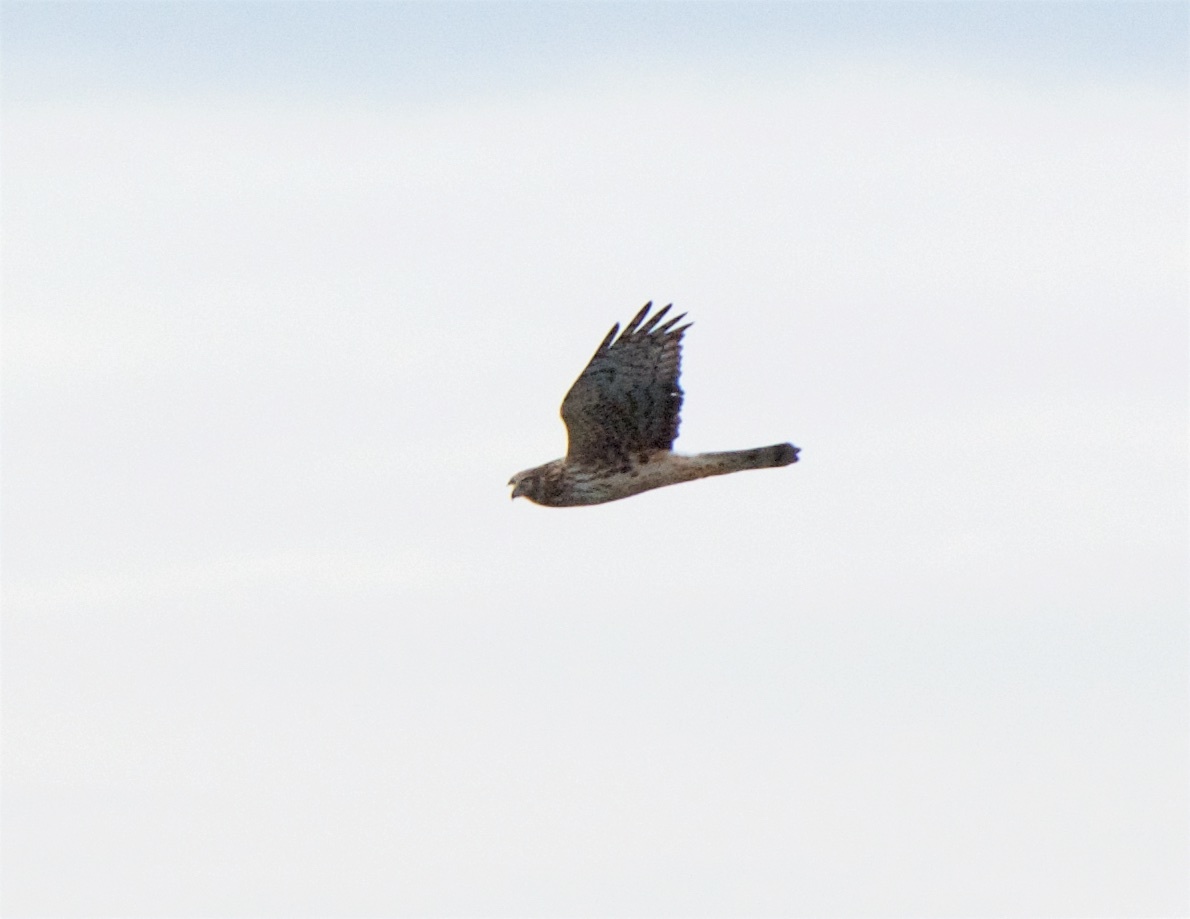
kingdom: Animalia
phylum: Chordata
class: Aves
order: Accipitriformes
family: Accipitridae
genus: Circus
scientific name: Circus cyaneus
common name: Hen harrier
